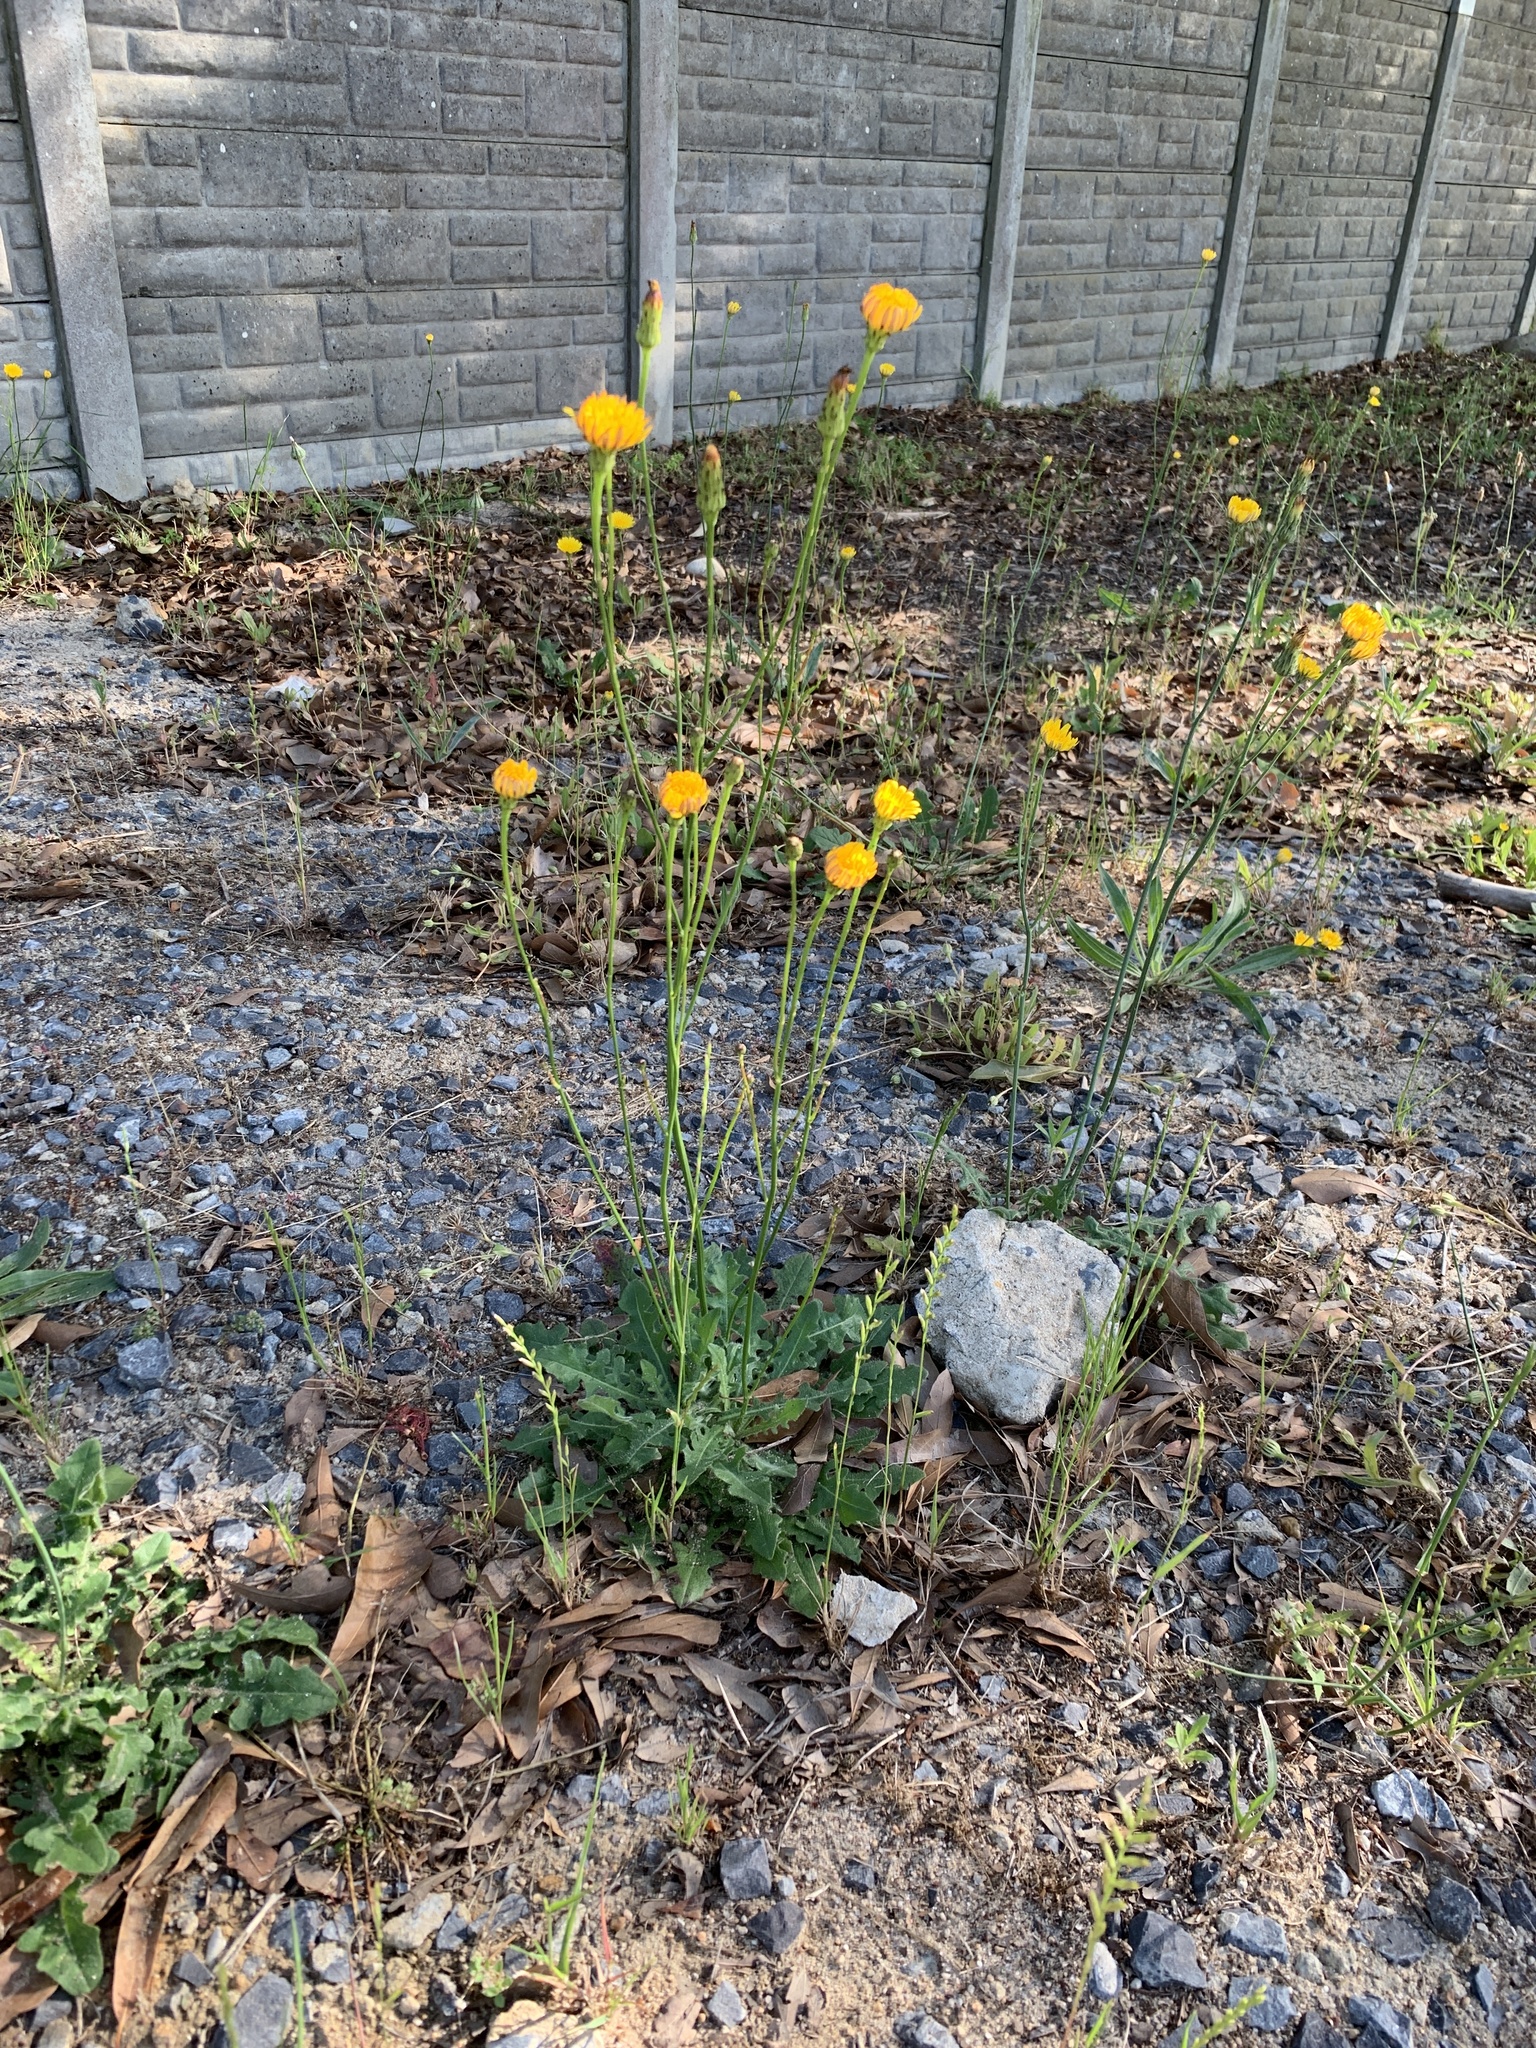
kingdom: Plantae
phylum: Tracheophyta
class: Magnoliopsida
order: Asterales
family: Asteraceae
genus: Hypochaeris
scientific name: Hypochaeris radicata
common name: Flatweed
